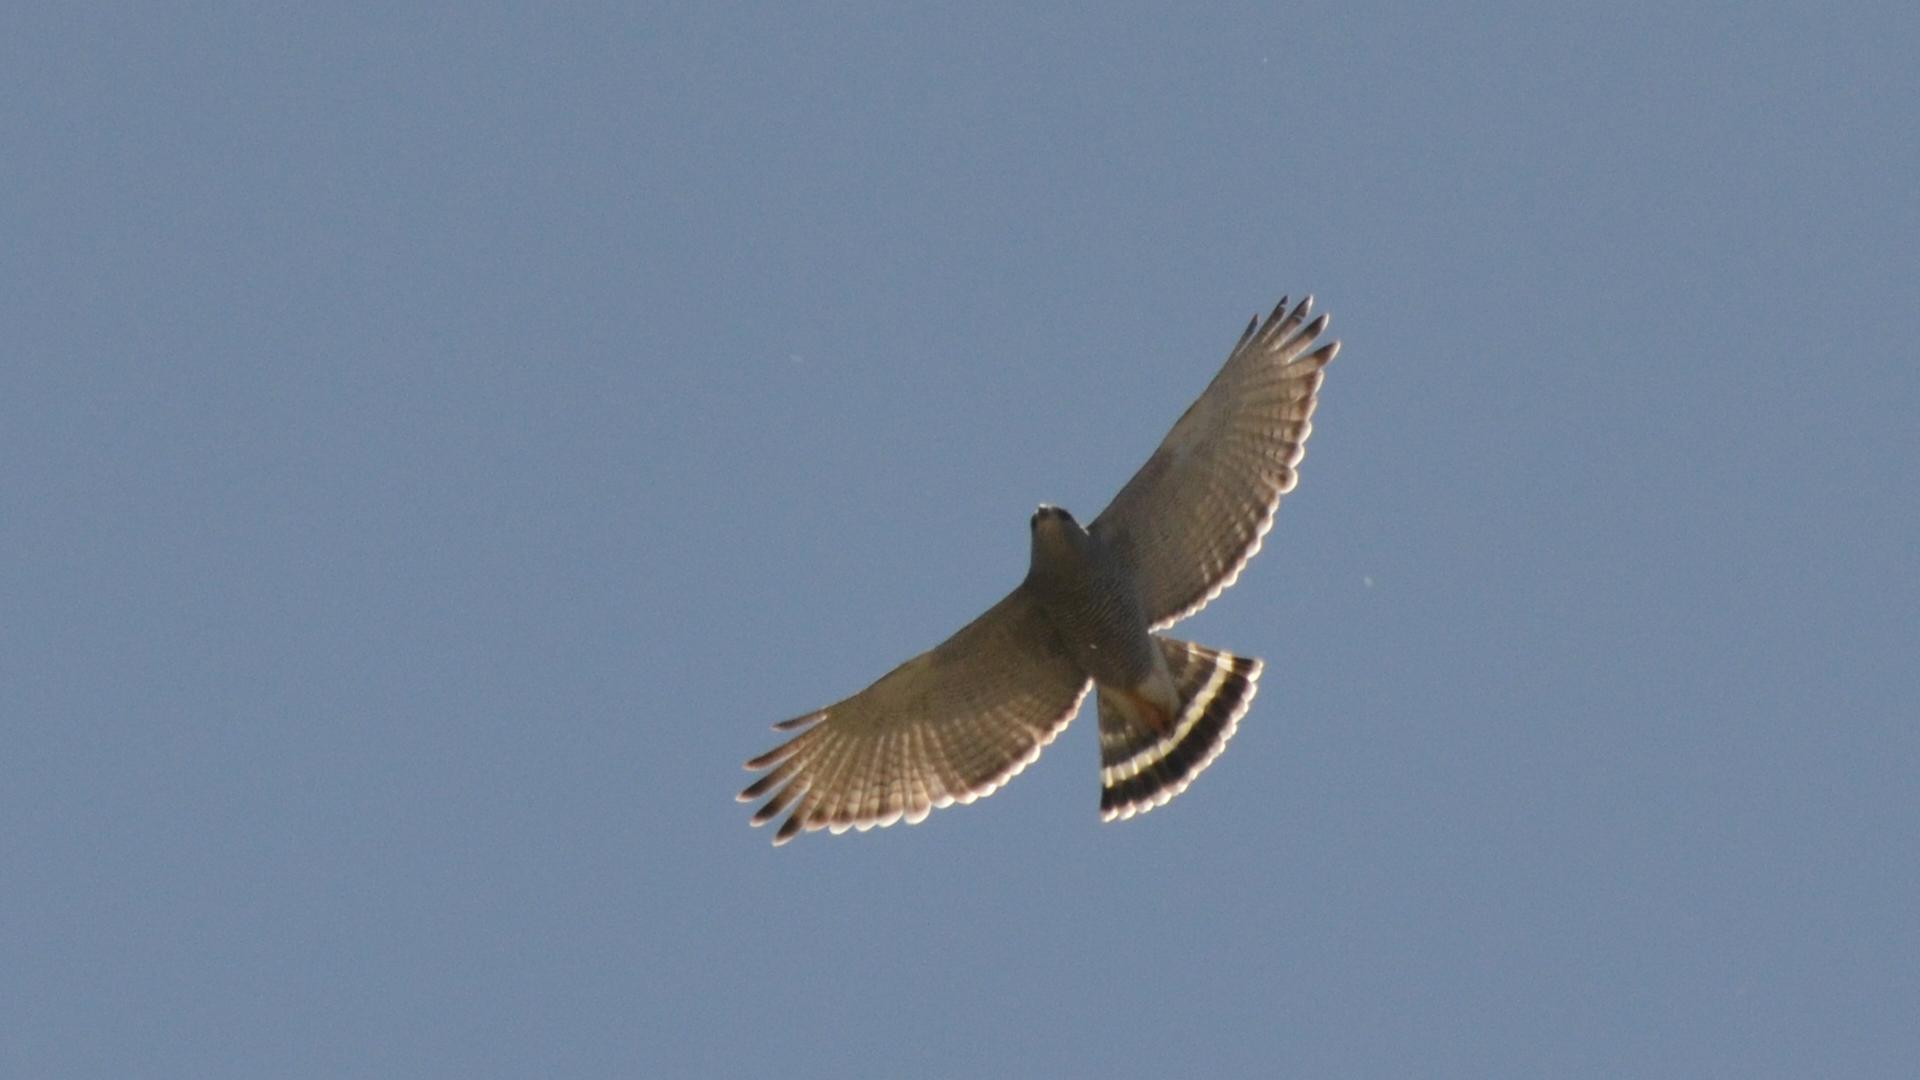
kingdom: Animalia
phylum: Chordata
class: Aves
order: Accipitriformes
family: Accipitridae
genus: Buteo
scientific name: Buteo nitidus
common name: Grey-lined hawk
